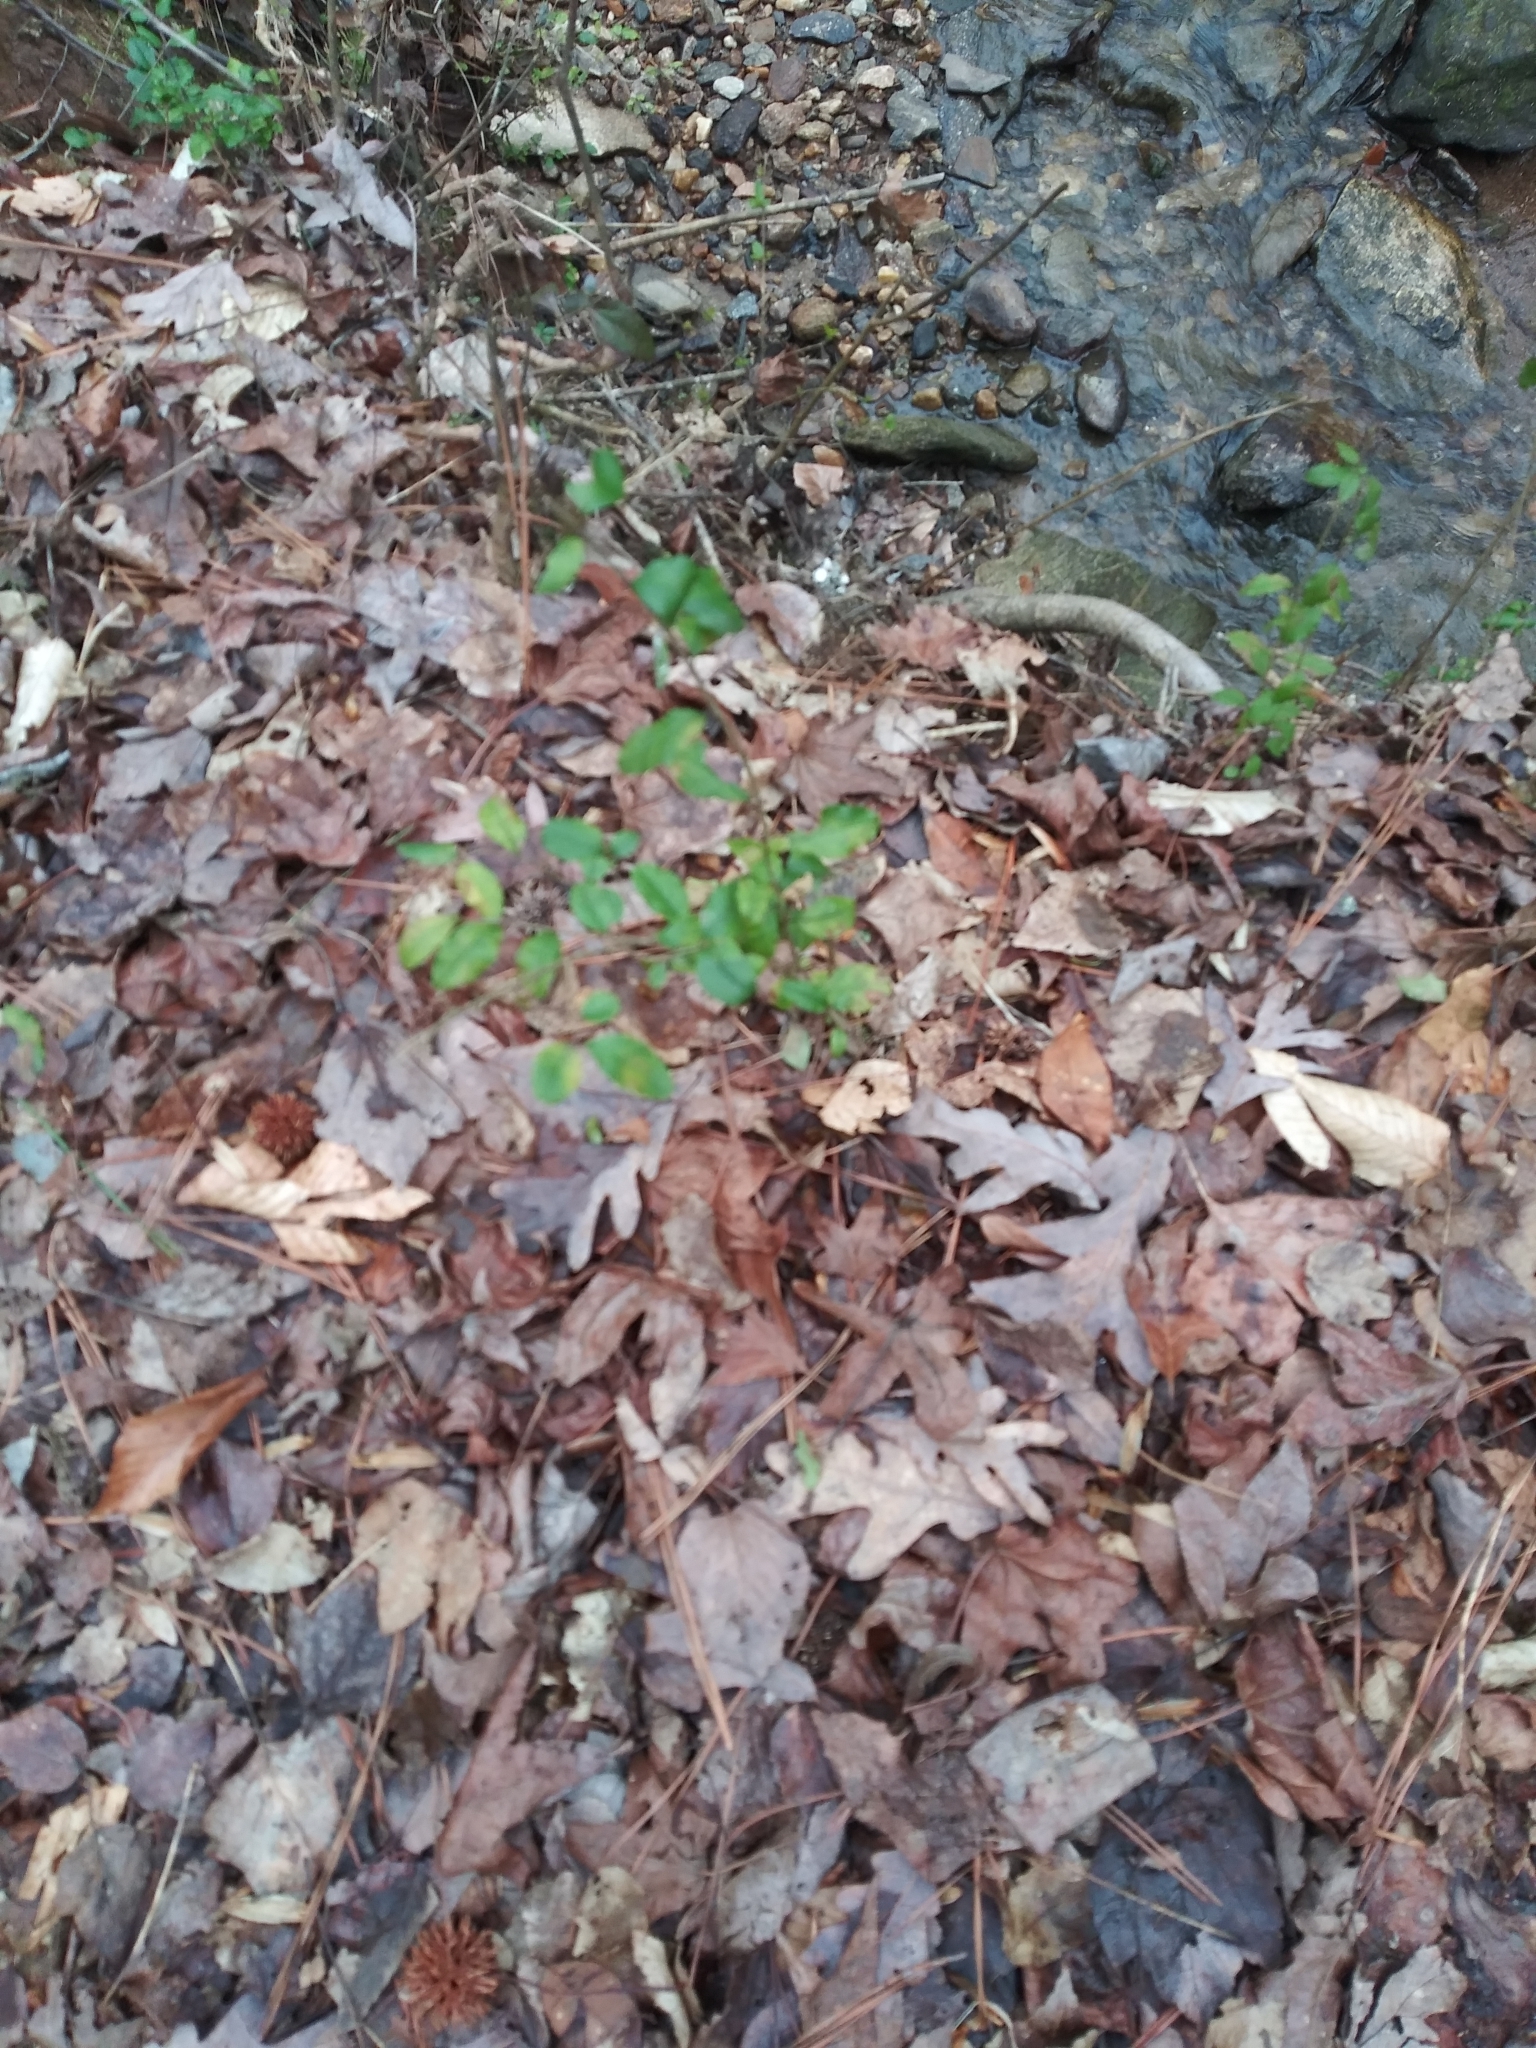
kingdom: Plantae
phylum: Tracheophyta
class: Magnoliopsida
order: Lamiales
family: Oleaceae
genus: Ligustrum
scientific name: Ligustrum sinense
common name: Chinese privet
